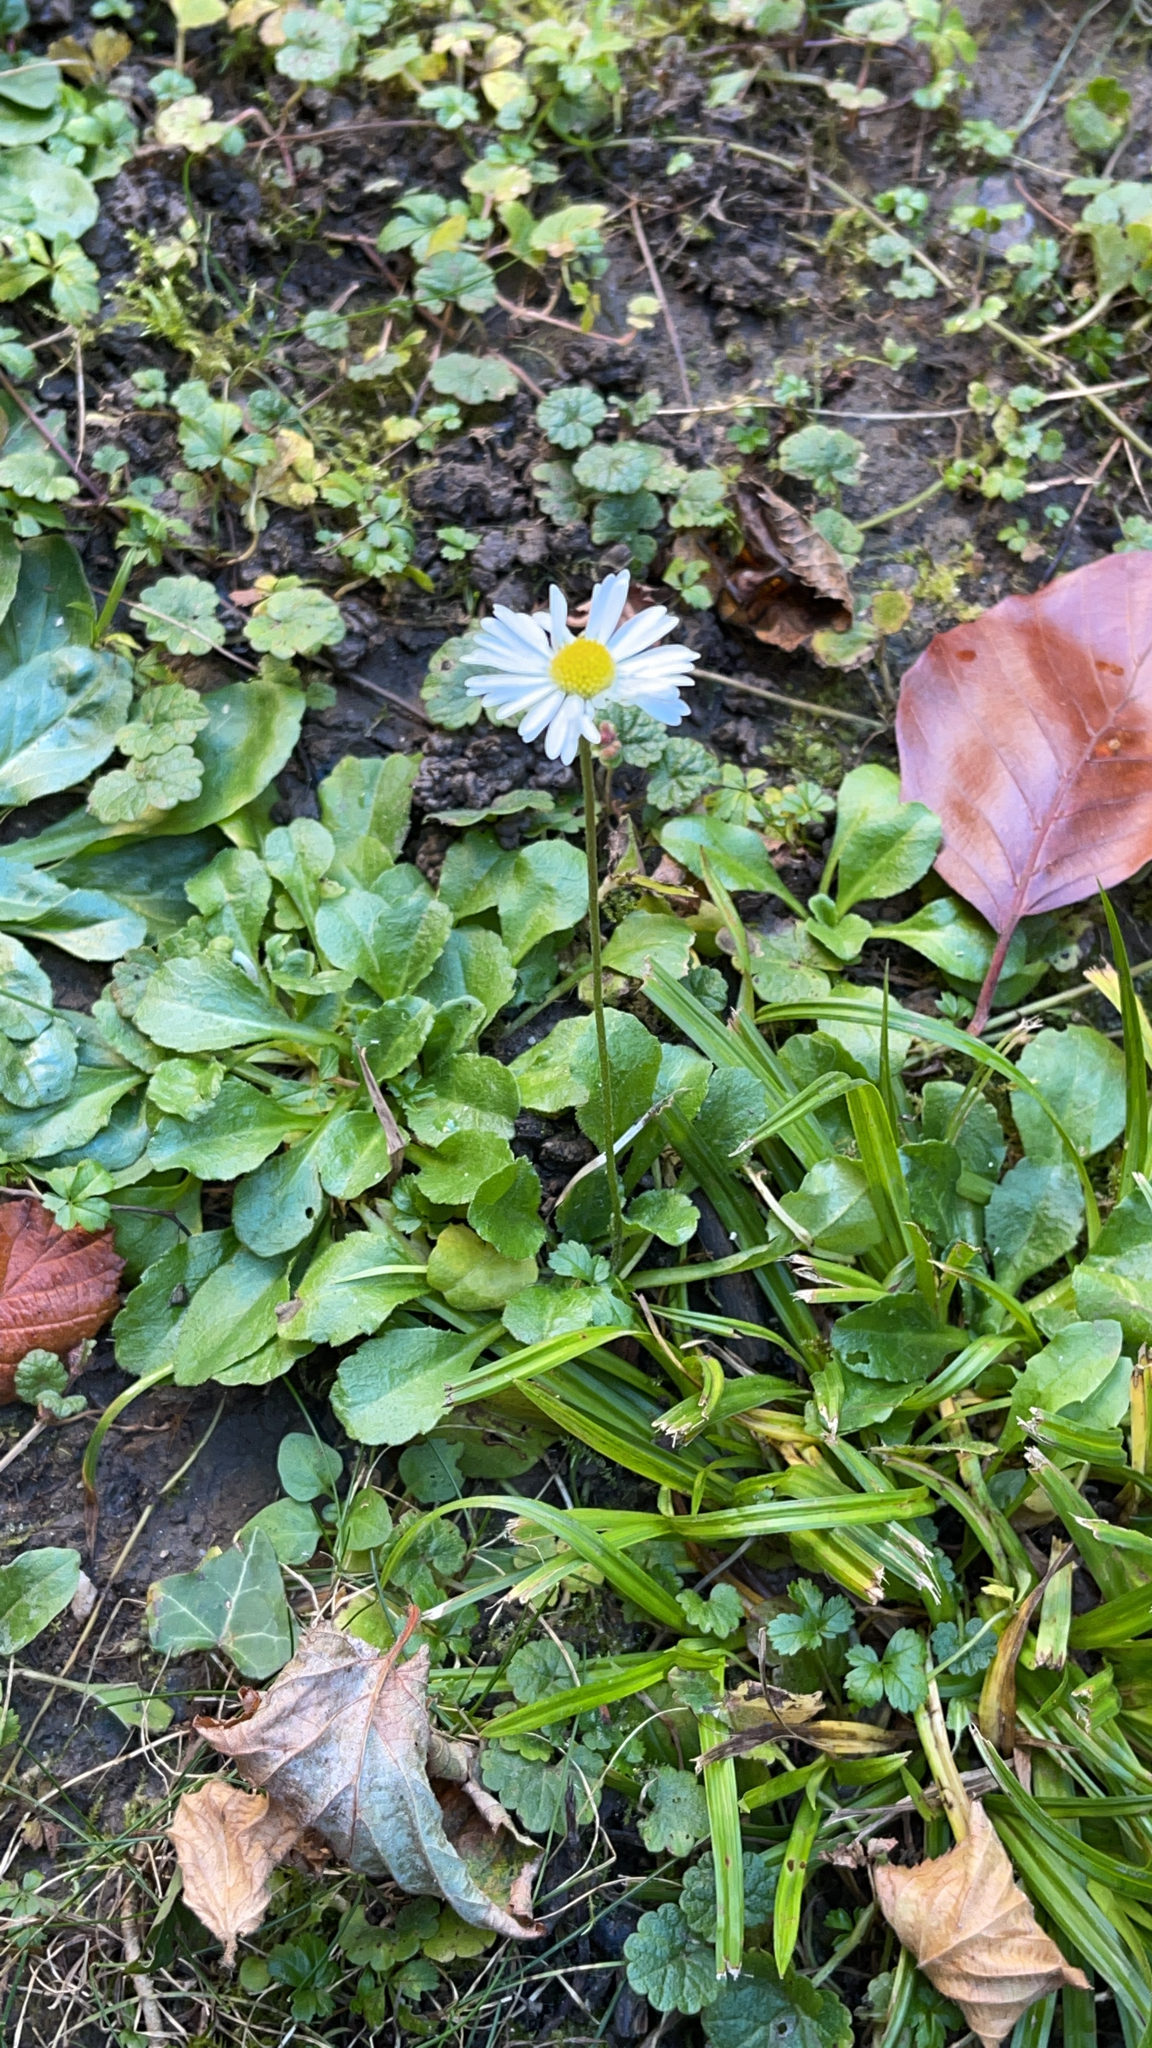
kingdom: Plantae
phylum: Tracheophyta
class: Magnoliopsida
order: Asterales
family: Asteraceae
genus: Bellis
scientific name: Bellis perennis
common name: Lawndaisy
